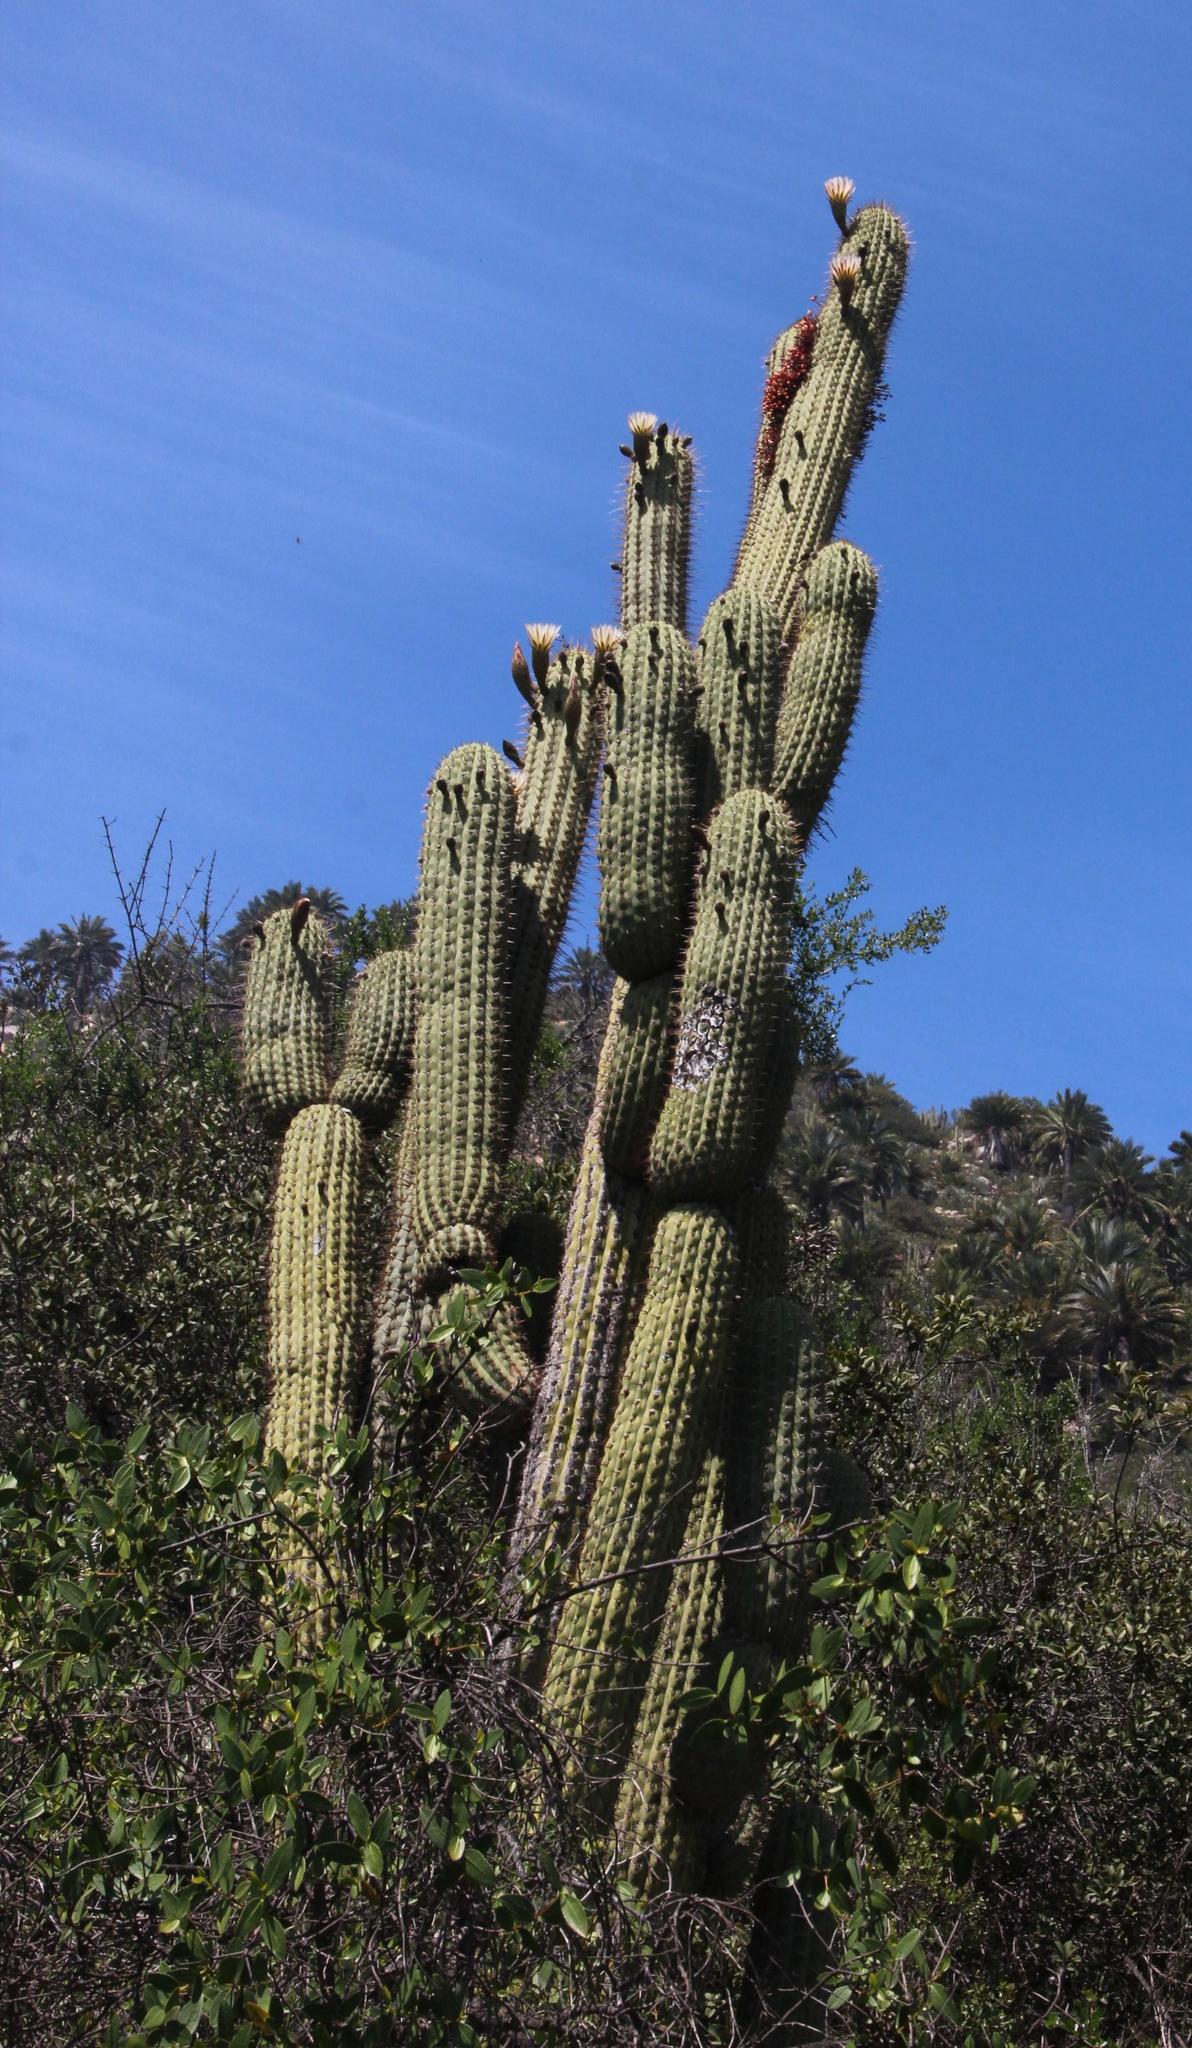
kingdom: Plantae
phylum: Tracheophyta
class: Magnoliopsida
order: Caryophyllales
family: Cactaceae
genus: Leucostele
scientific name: Leucostele chiloensis
